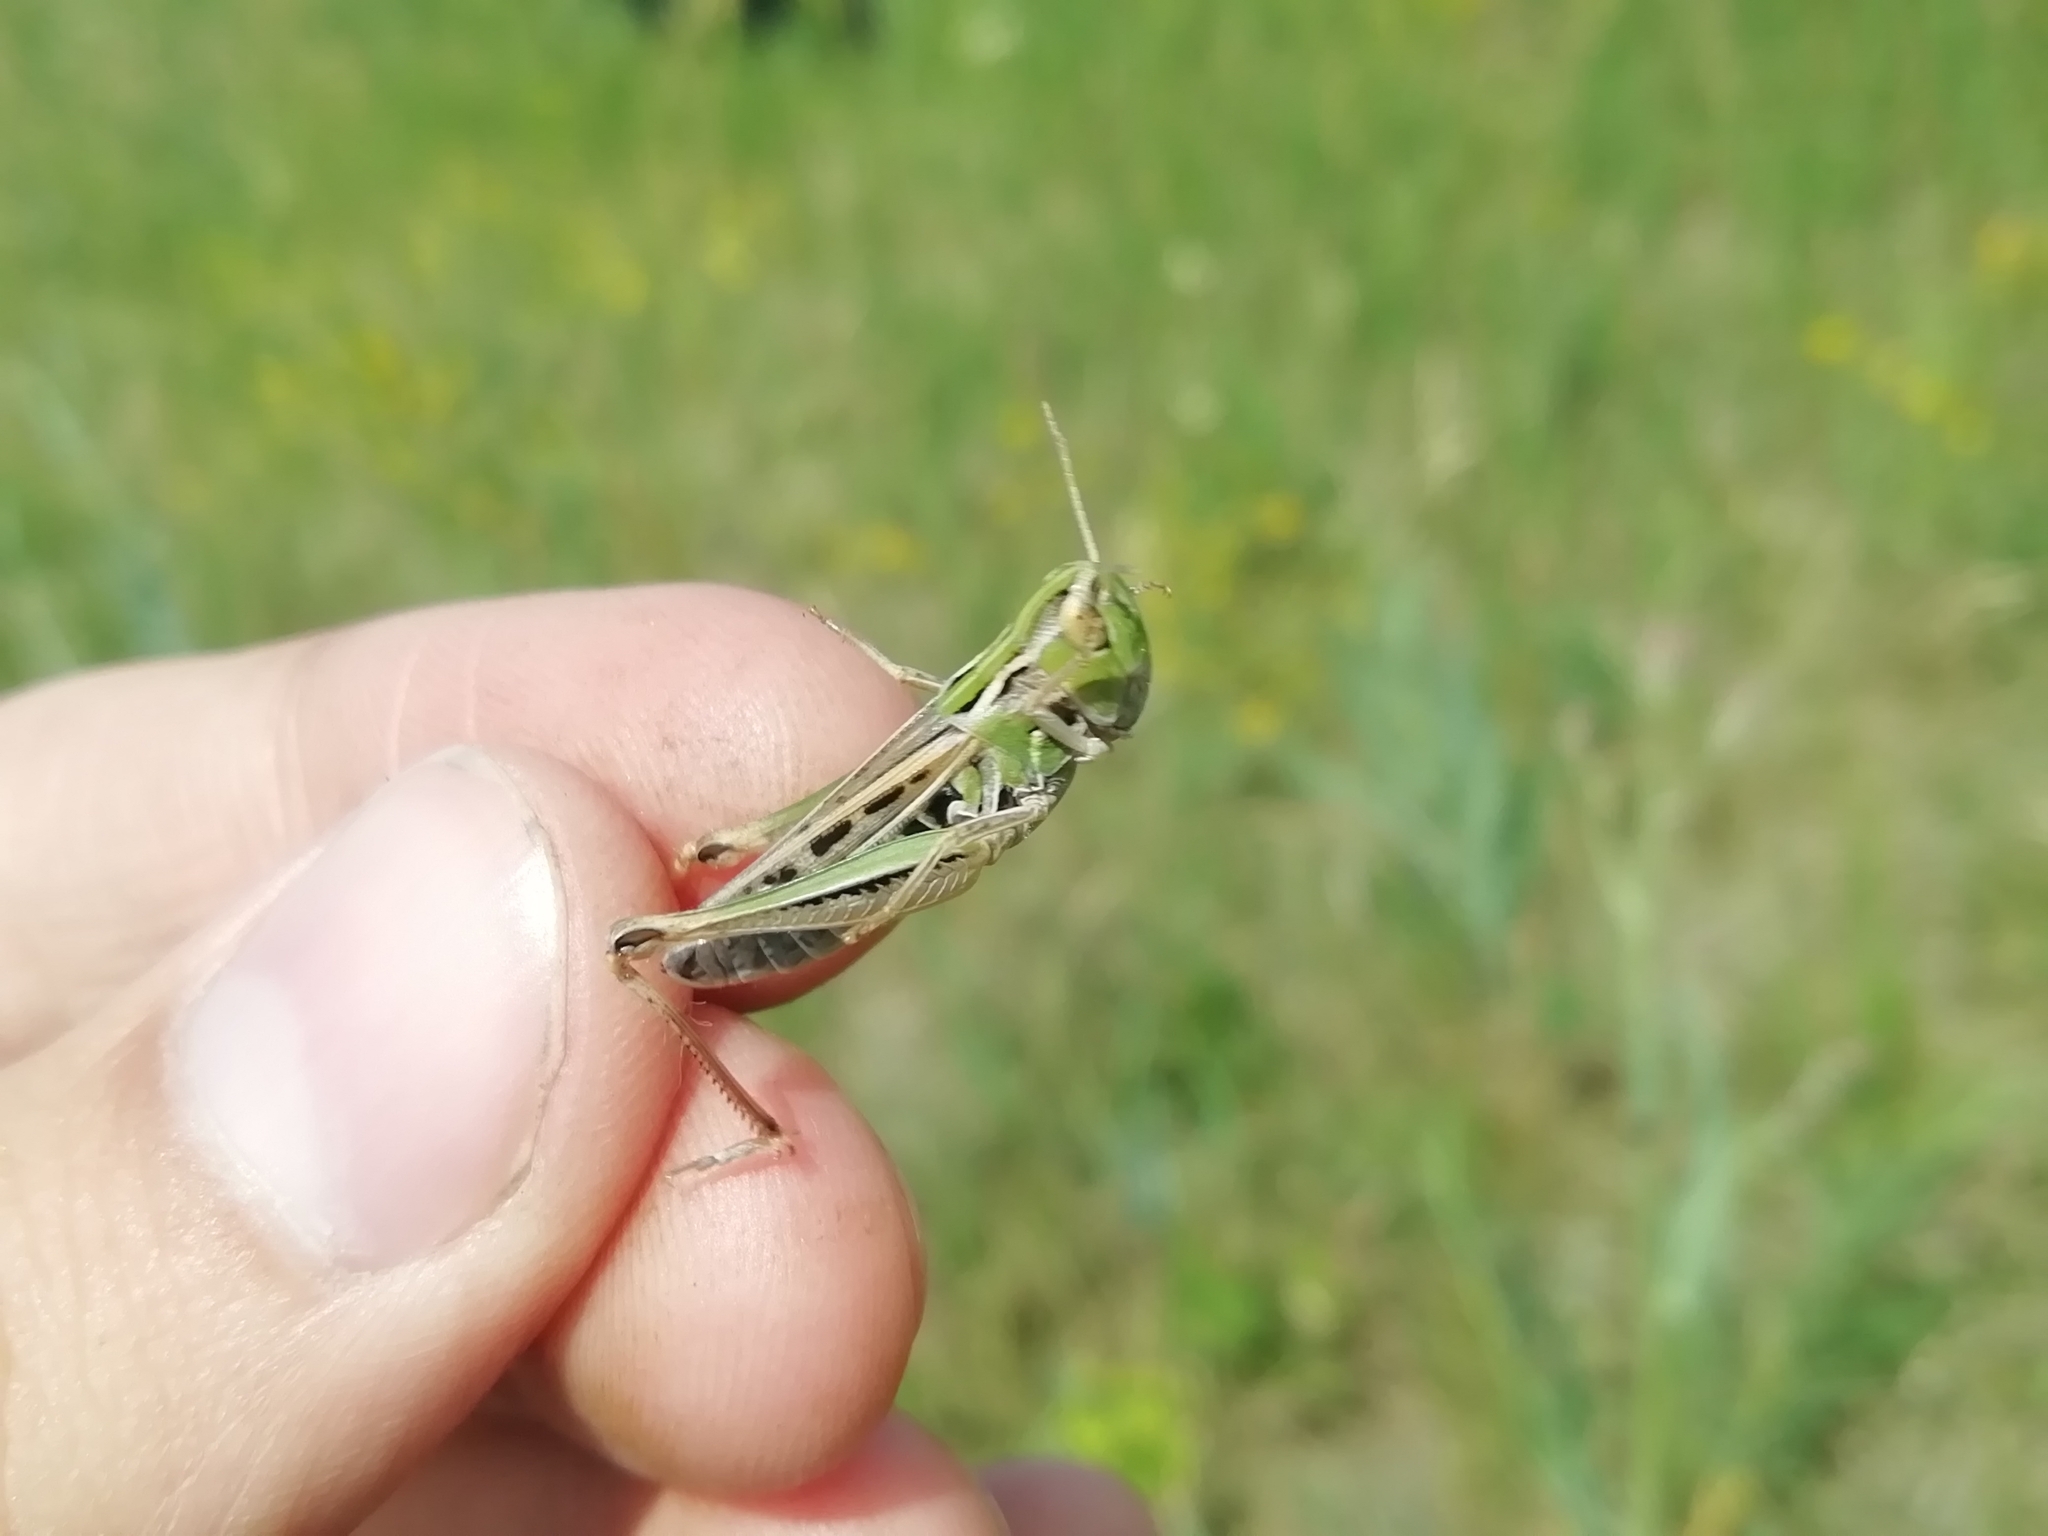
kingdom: Animalia
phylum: Arthropoda
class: Insecta
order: Orthoptera
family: Acrididae
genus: Stenobothrus
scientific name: Stenobothrus nigromaculatus
